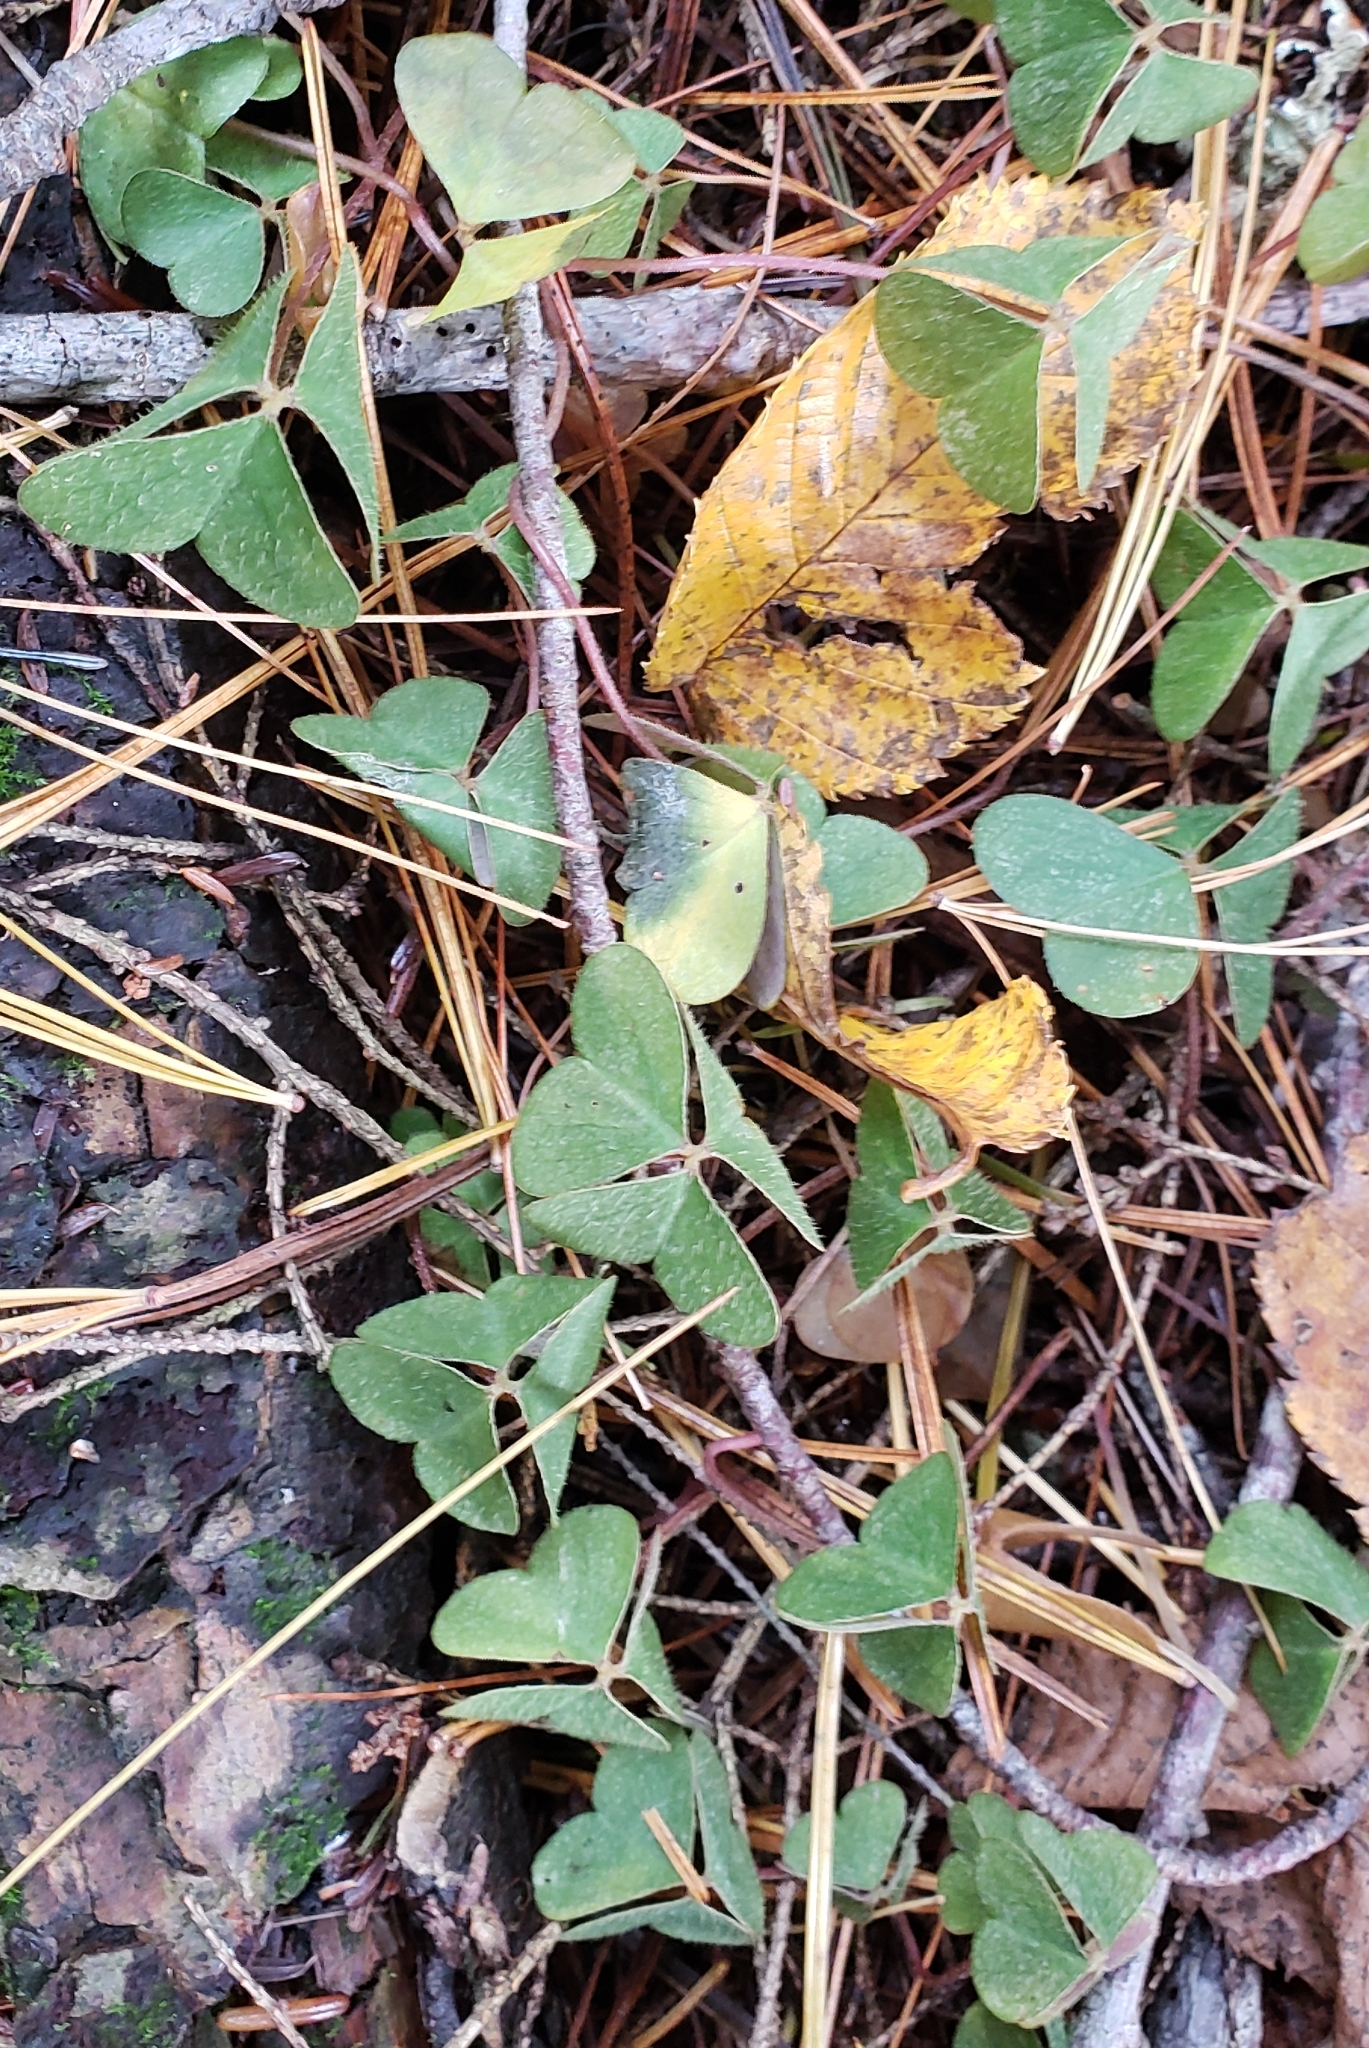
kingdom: Plantae
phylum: Tracheophyta
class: Magnoliopsida
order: Oxalidales
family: Oxalidaceae
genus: Oxalis
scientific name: Oxalis montana
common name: American wood-sorrel
